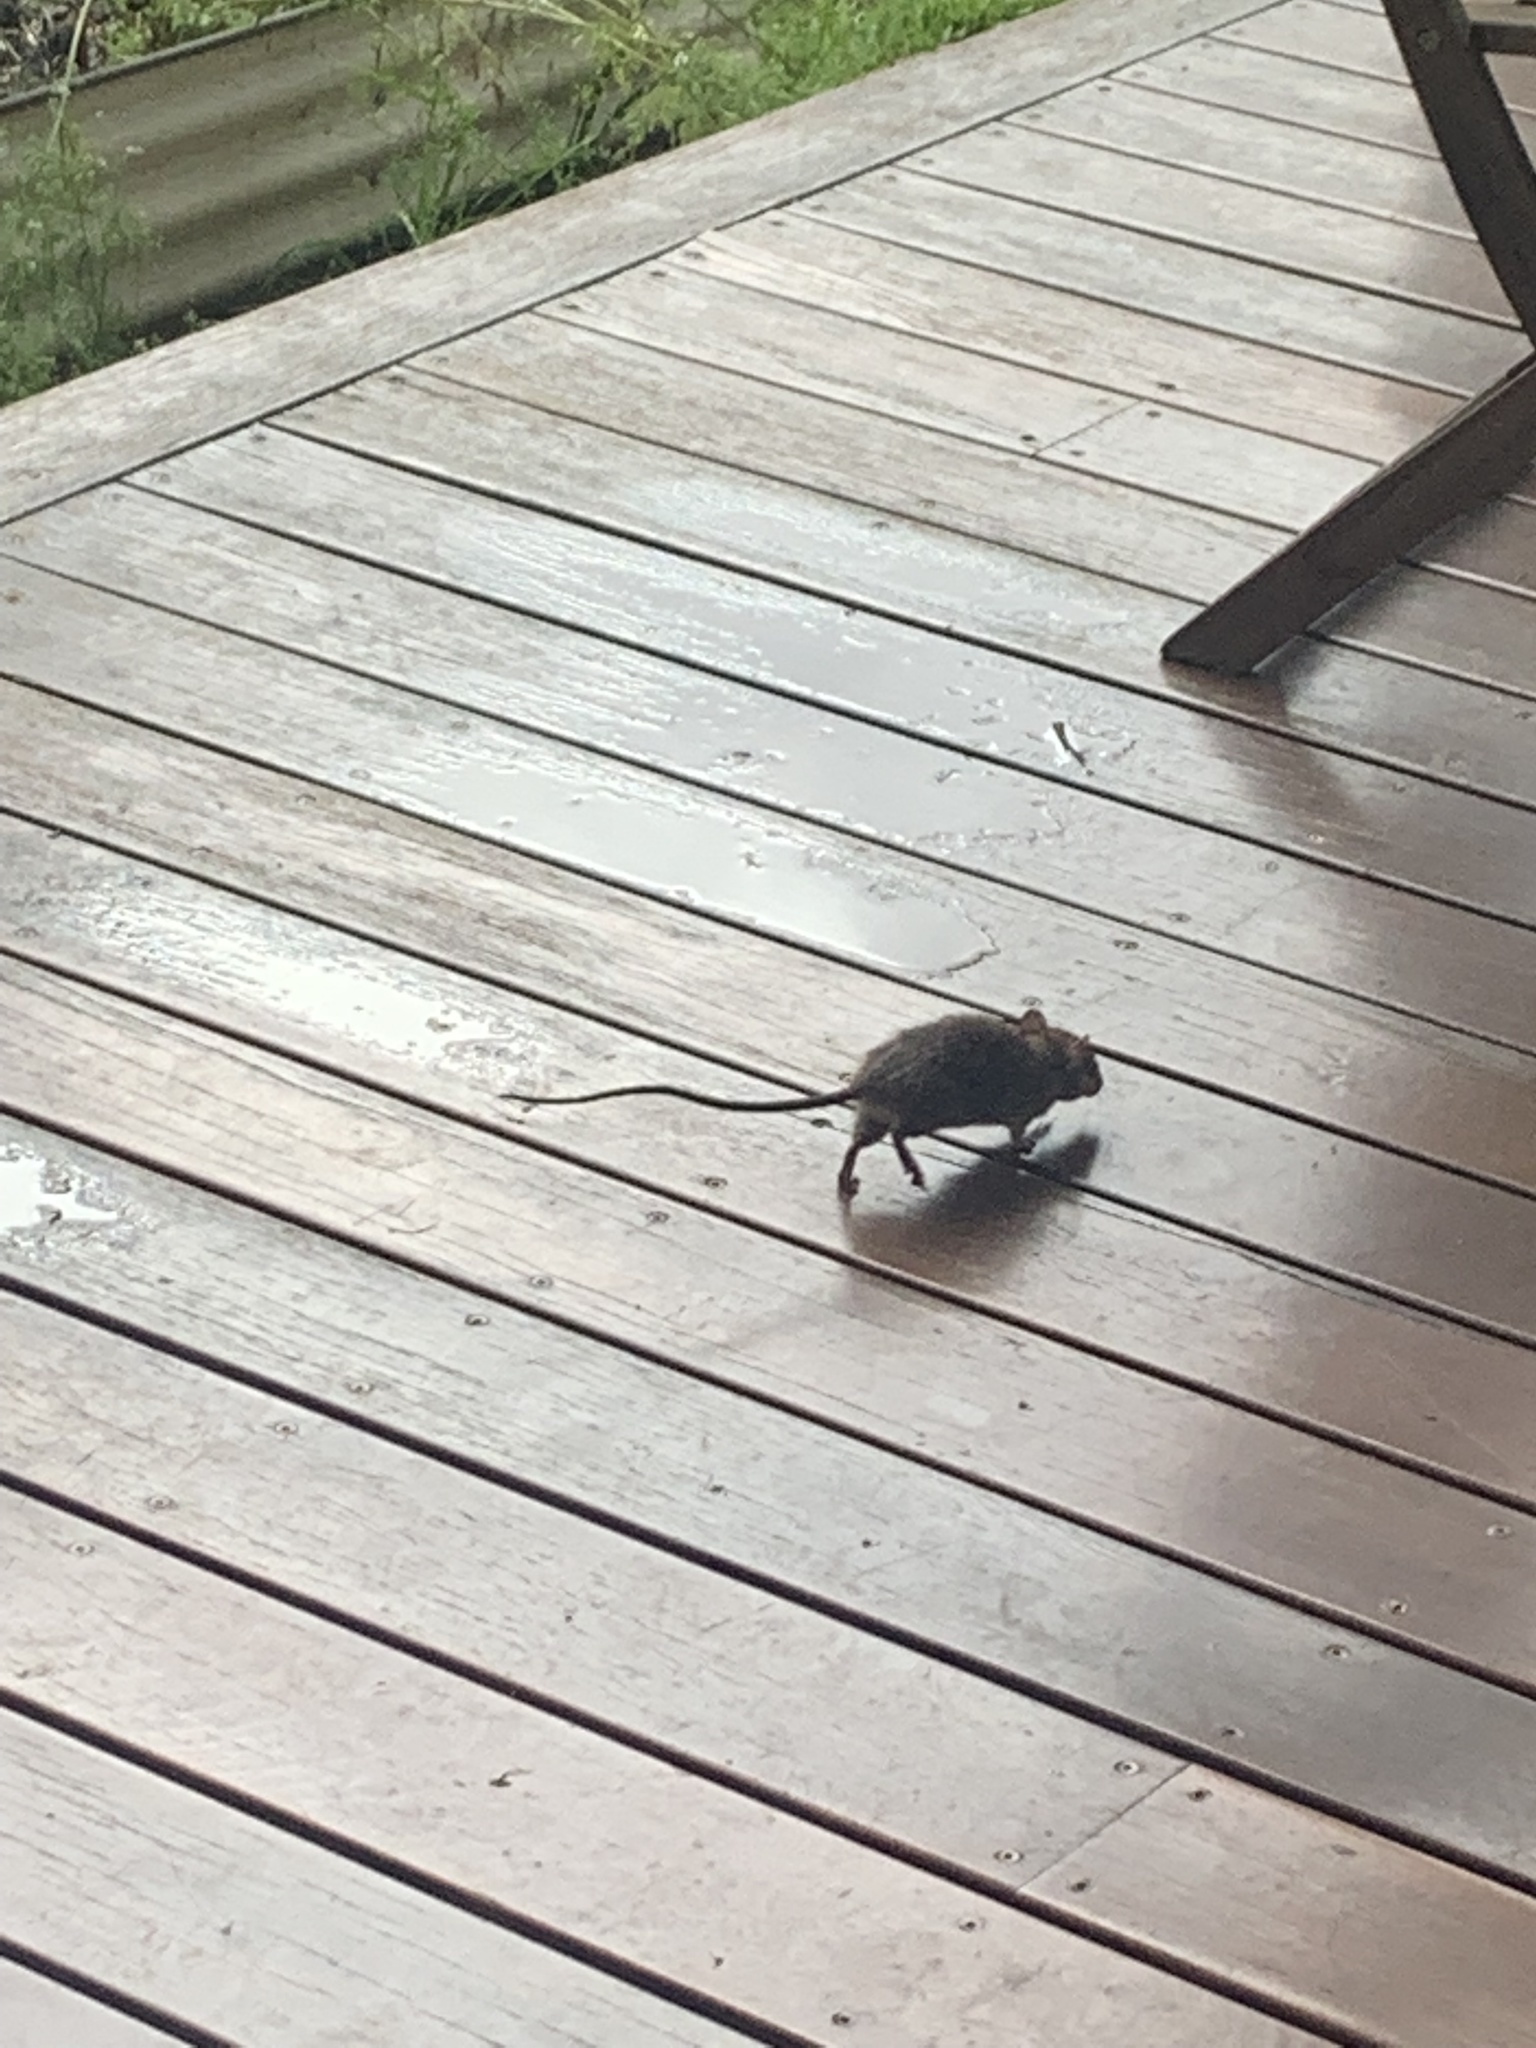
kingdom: Animalia
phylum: Chordata
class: Mammalia
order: Rodentia
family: Muridae
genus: Rattus
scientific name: Rattus rattus
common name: Black rat
